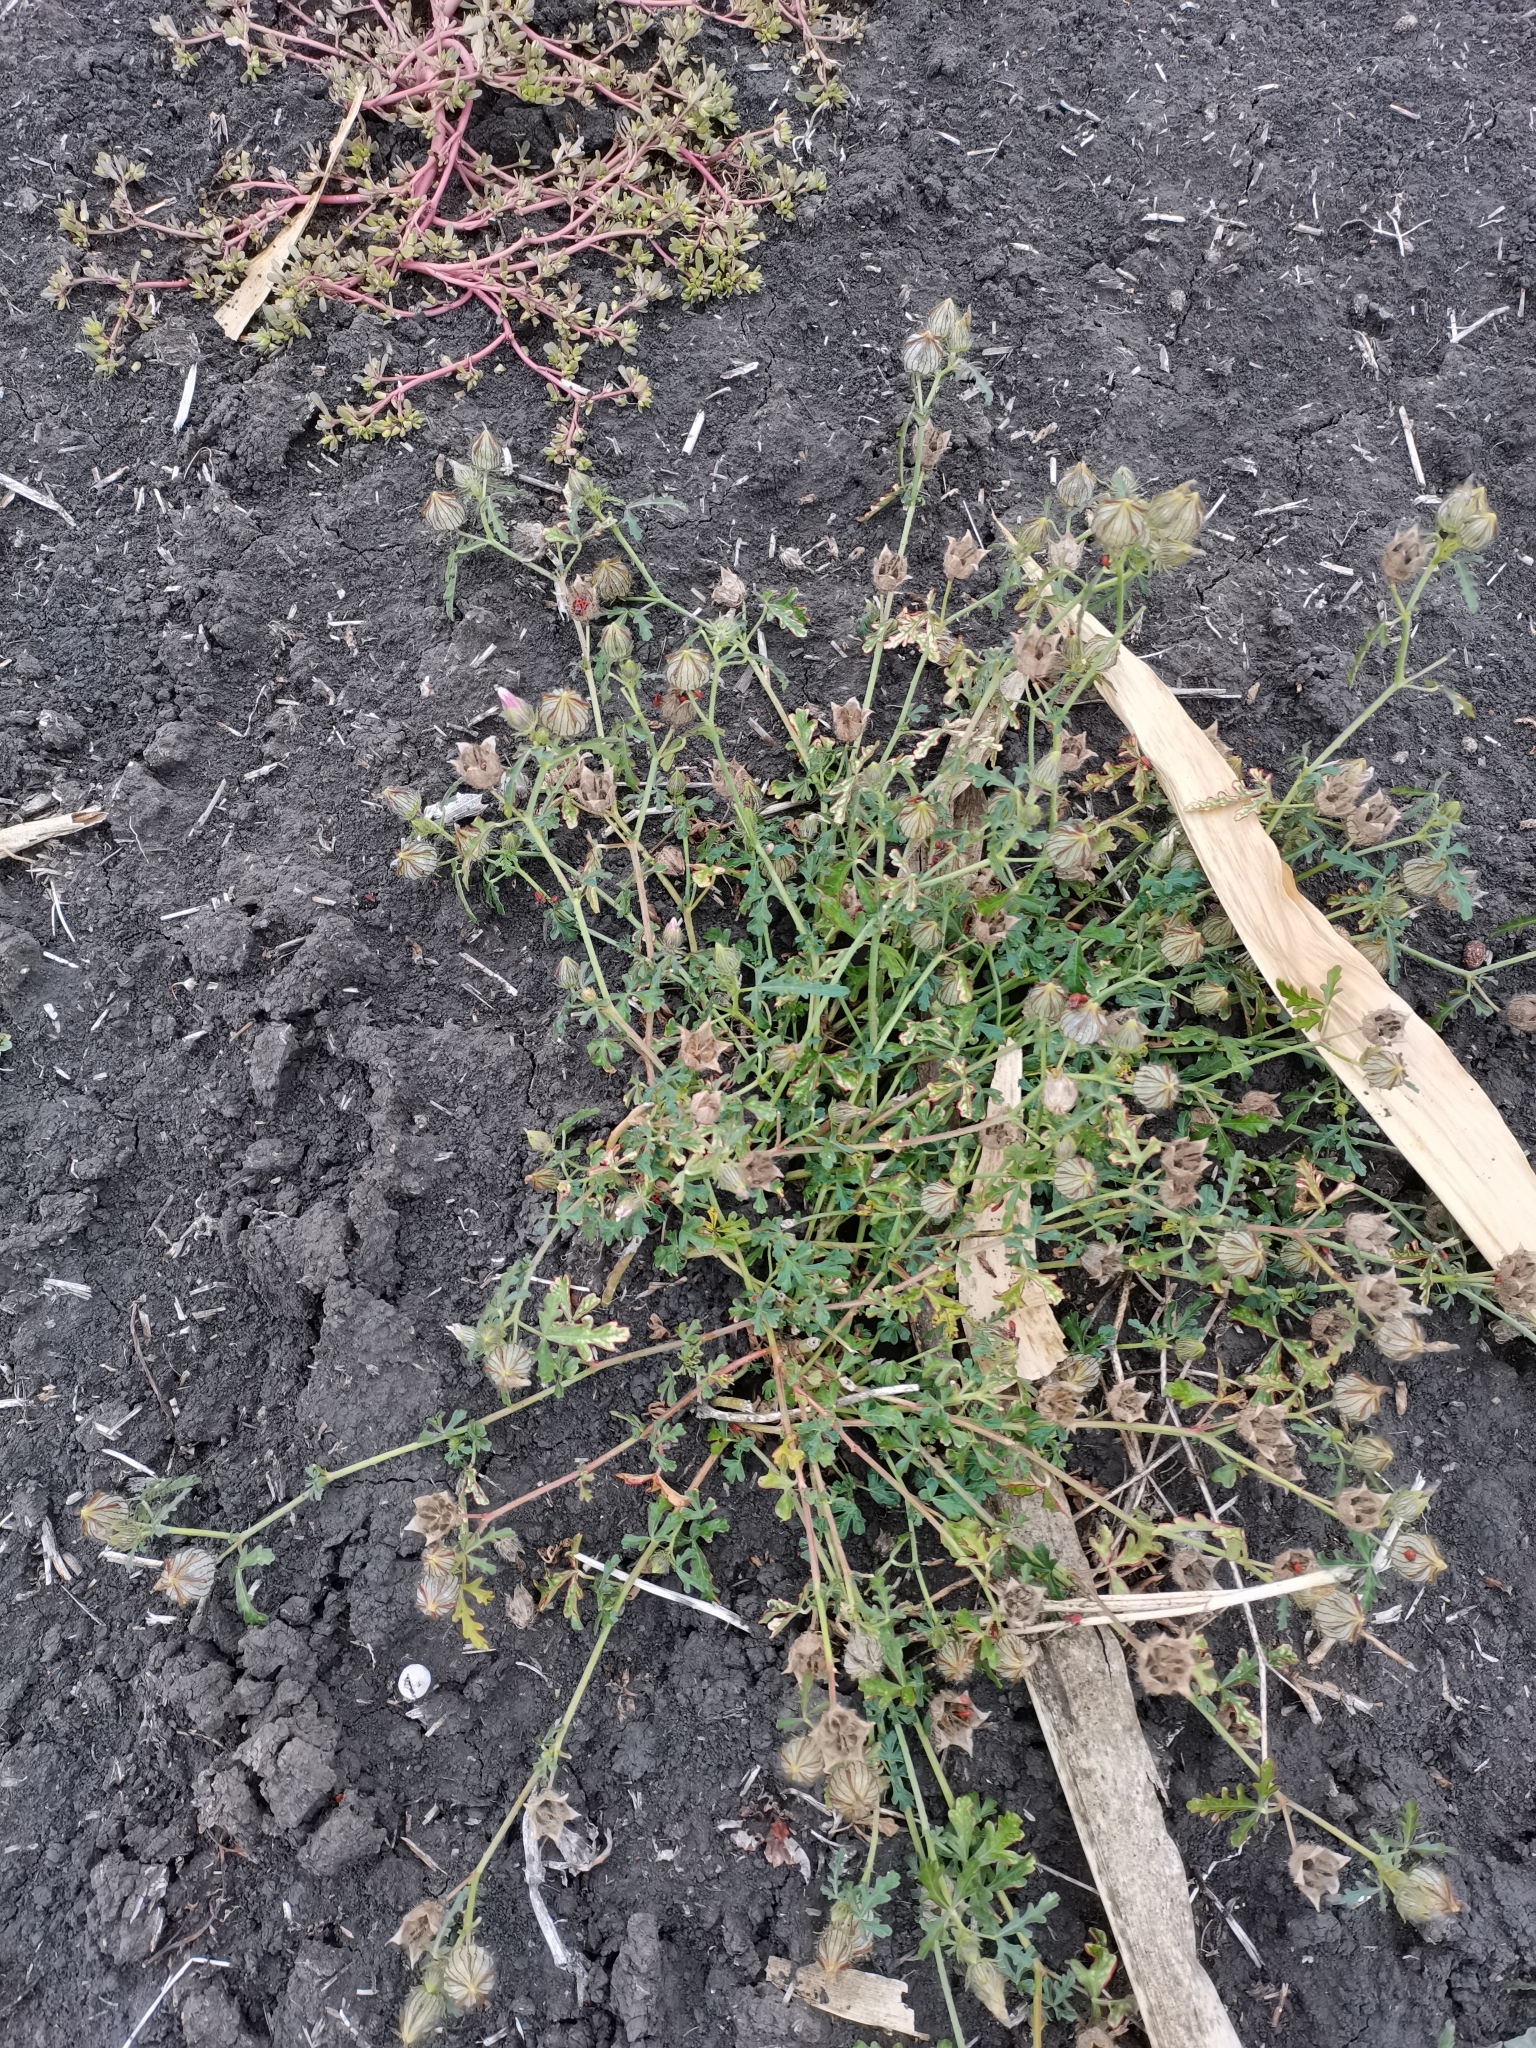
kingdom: Plantae
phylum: Tracheophyta
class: Magnoliopsida
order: Malvales
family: Malvaceae
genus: Hibiscus
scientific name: Hibiscus trionum
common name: Bladder ketmia
